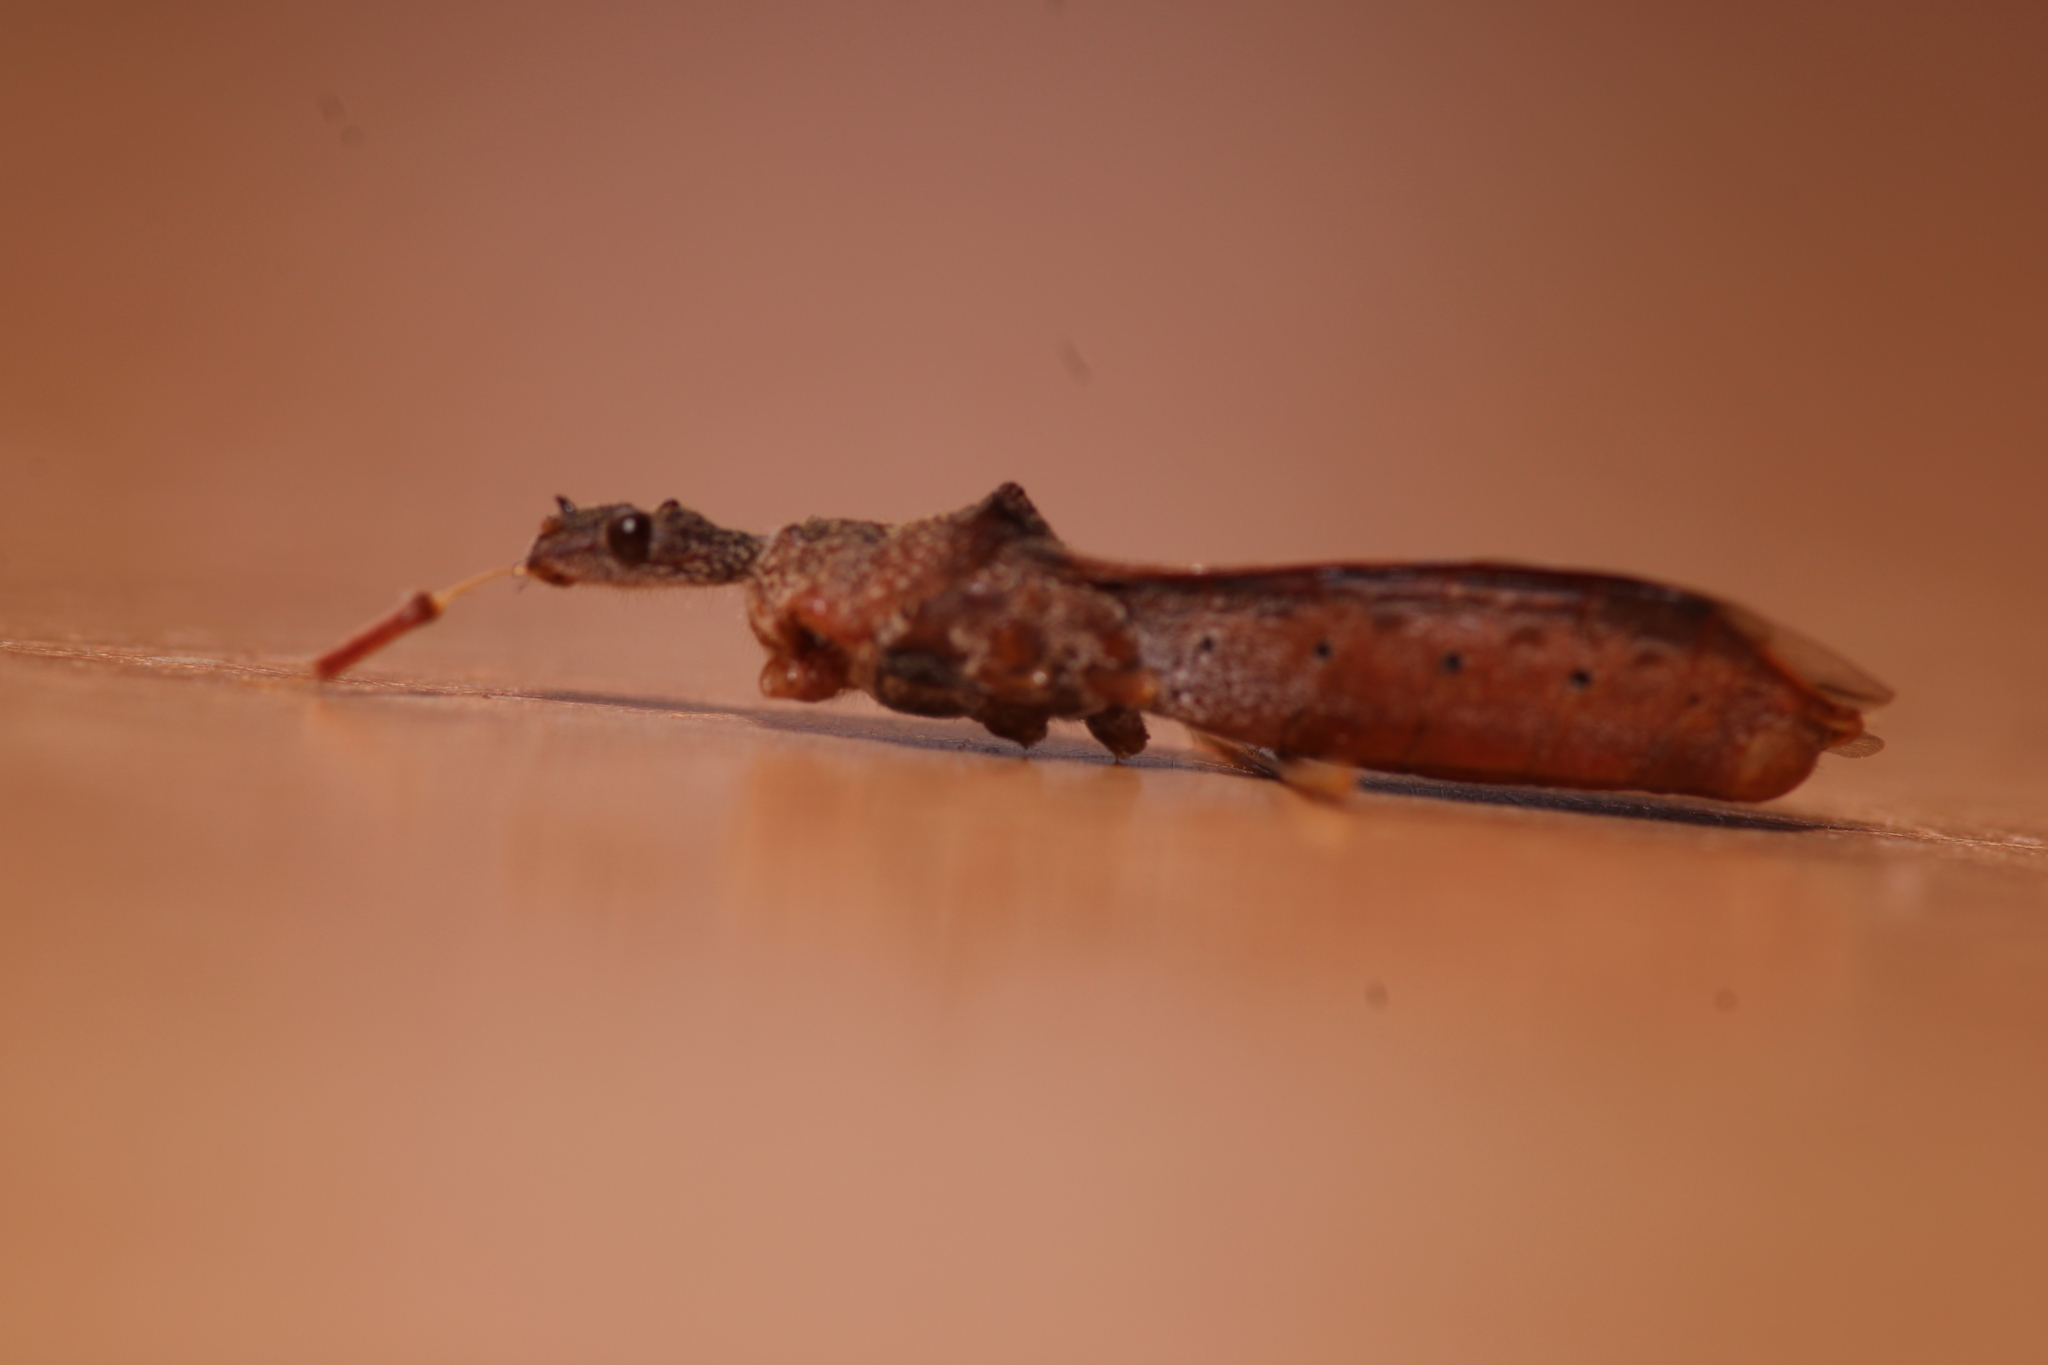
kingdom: Animalia
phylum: Arthropoda
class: Insecta
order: Hemiptera
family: Reduviidae
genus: Nagusta
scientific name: Nagusta goedelii
